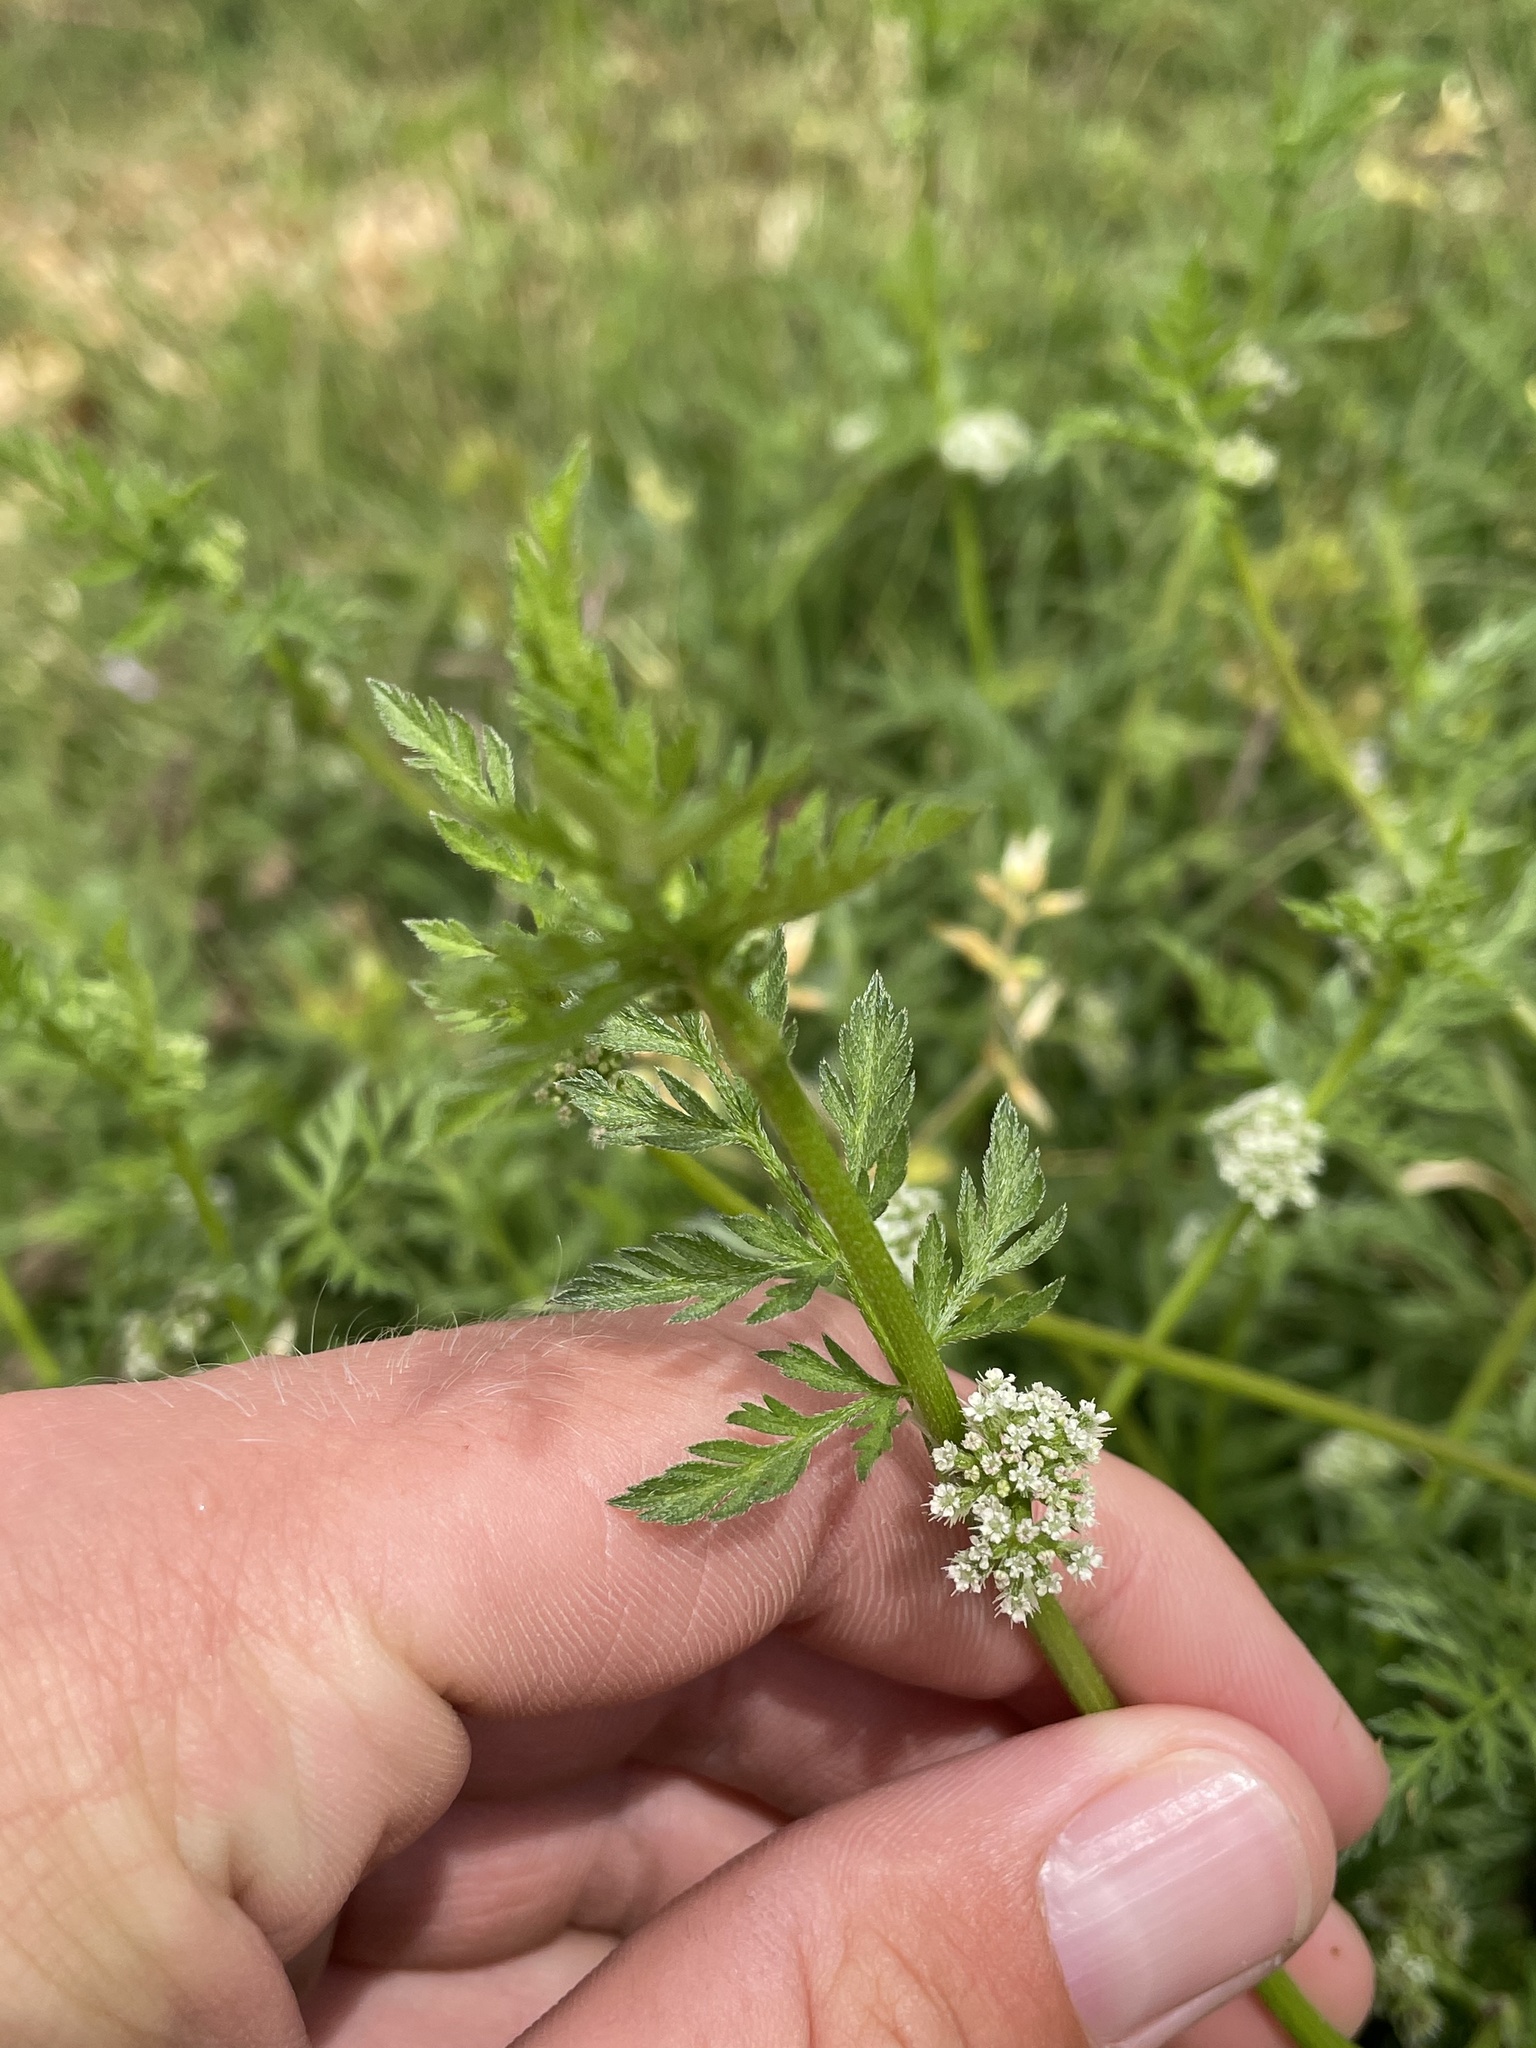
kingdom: Plantae
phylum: Tracheophyta
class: Magnoliopsida
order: Apiales
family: Apiaceae
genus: Torilis
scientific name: Torilis nodosa
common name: Knotted hedge-parsley
